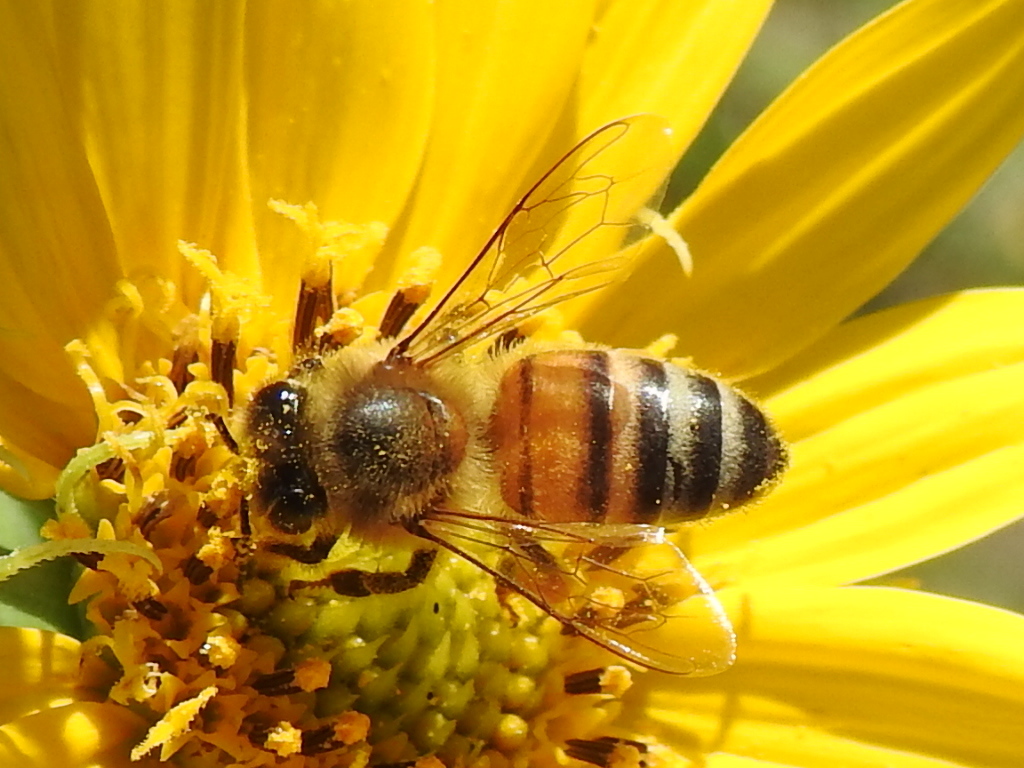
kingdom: Animalia
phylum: Arthropoda
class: Insecta
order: Hymenoptera
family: Apidae
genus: Apis
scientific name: Apis mellifera
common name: Honey bee
